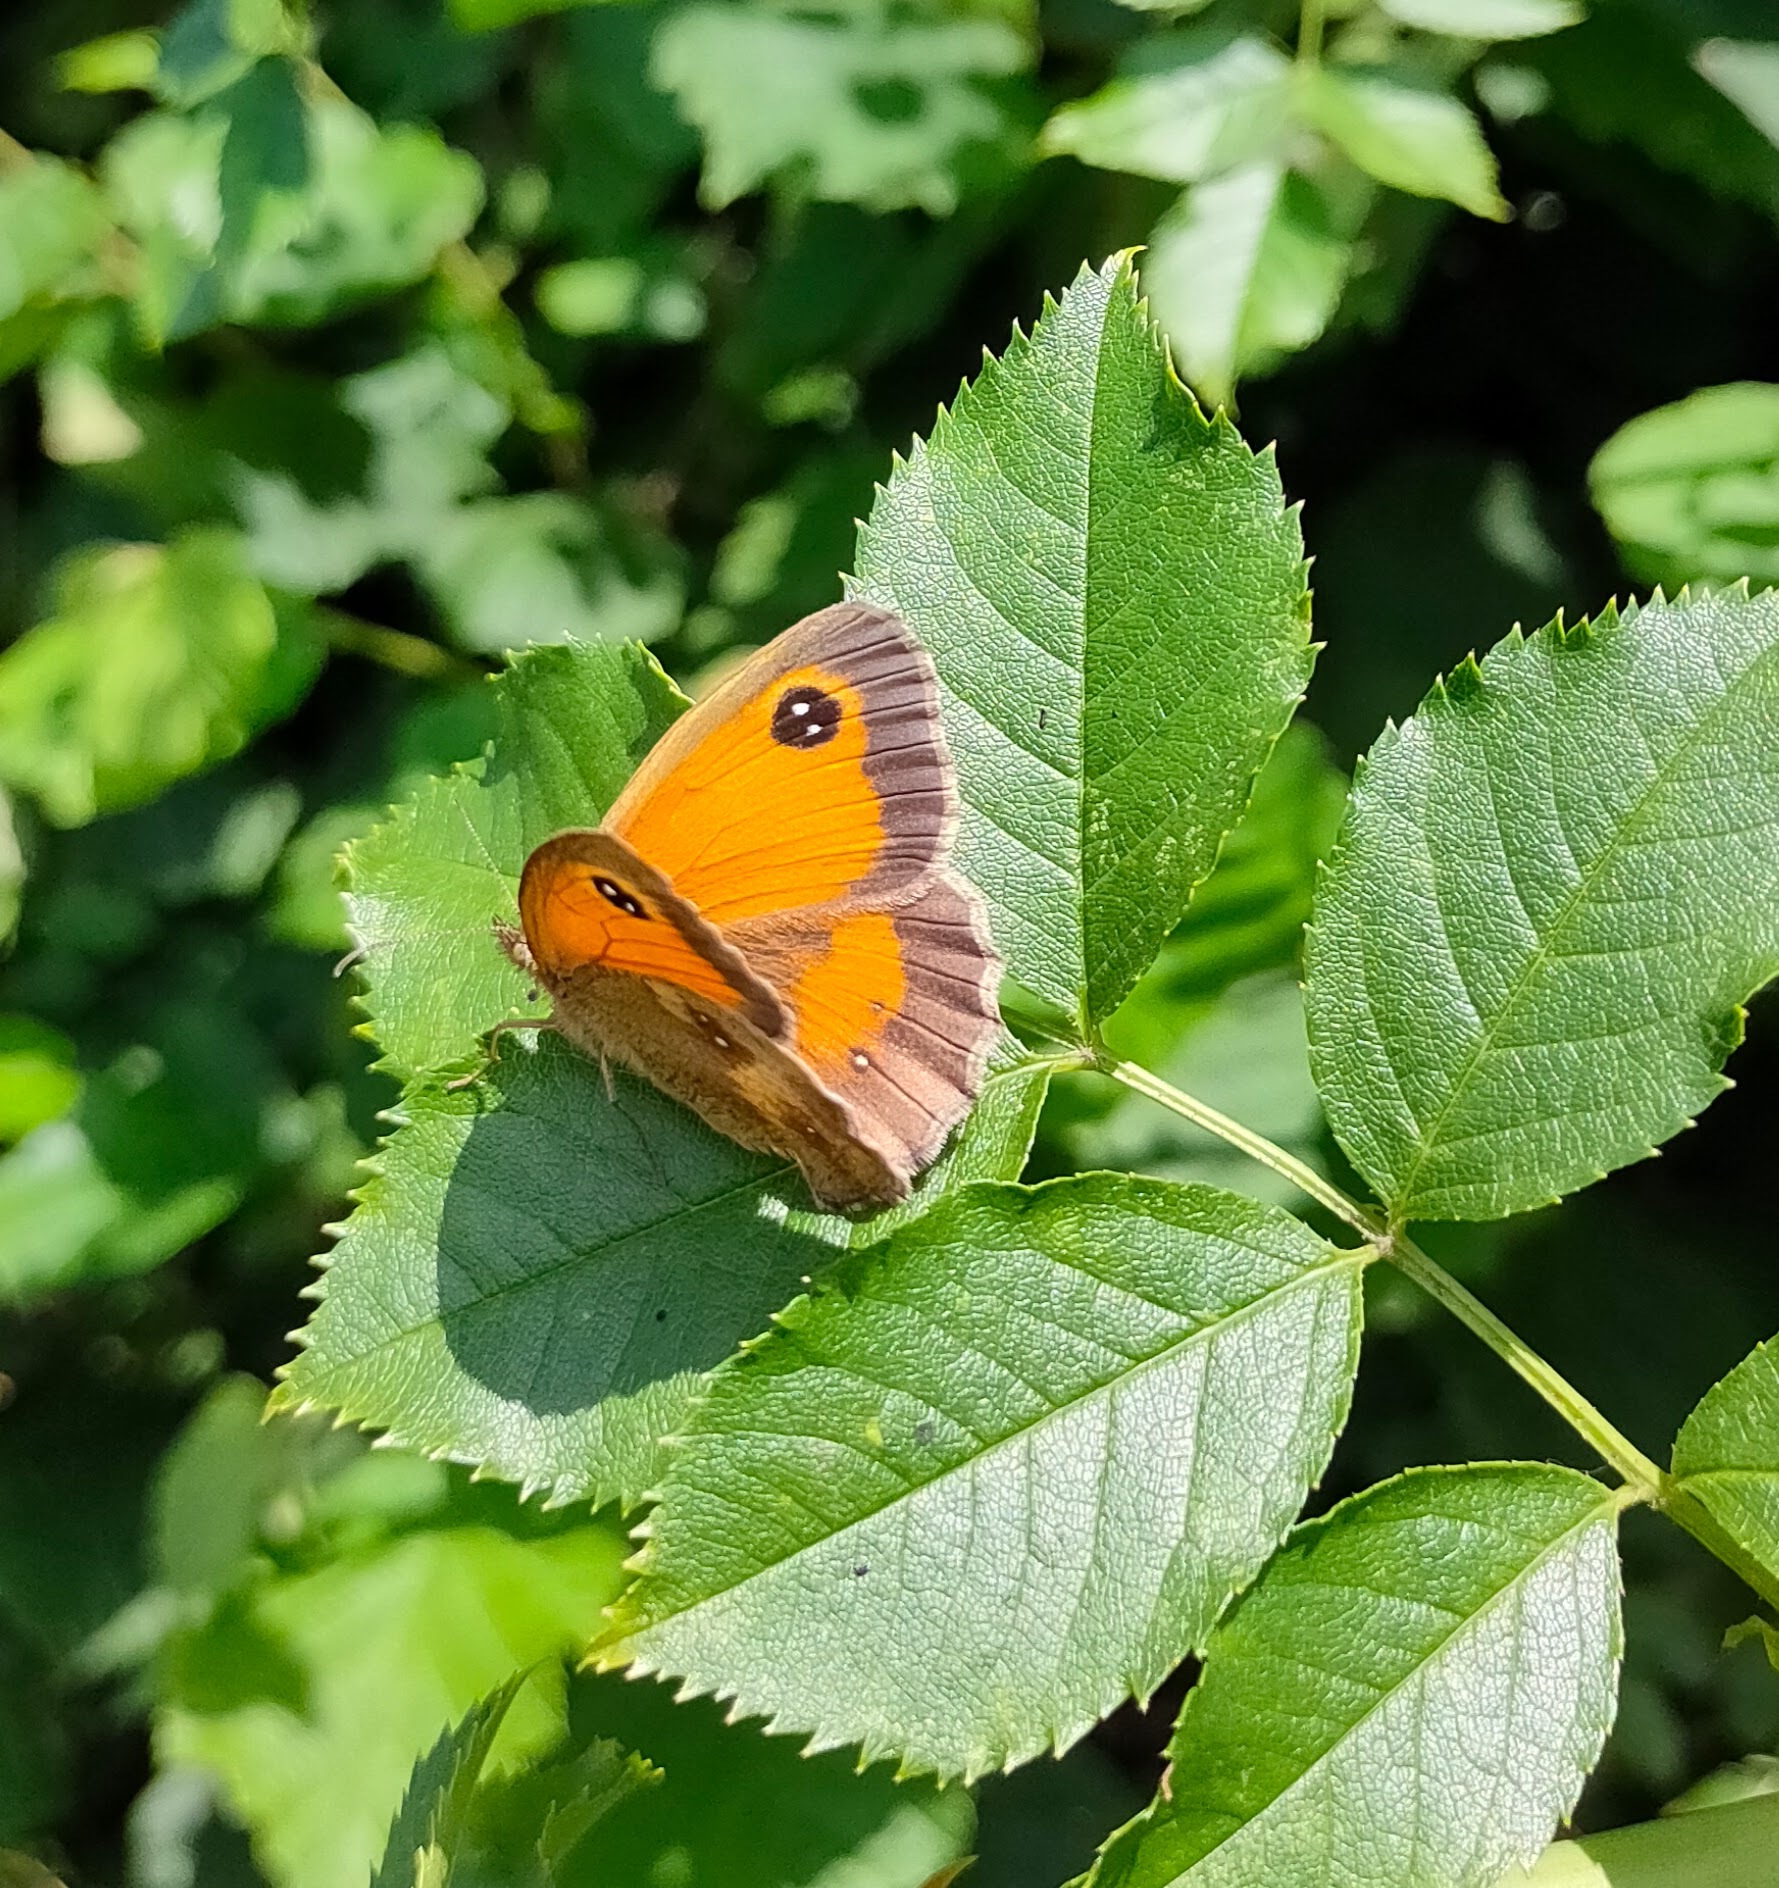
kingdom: Animalia
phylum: Arthropoda
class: Insecta
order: Lepidoptera
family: Nymphalidae
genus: Pyronia
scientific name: Pyronia tithonus
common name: Gatekeeper
